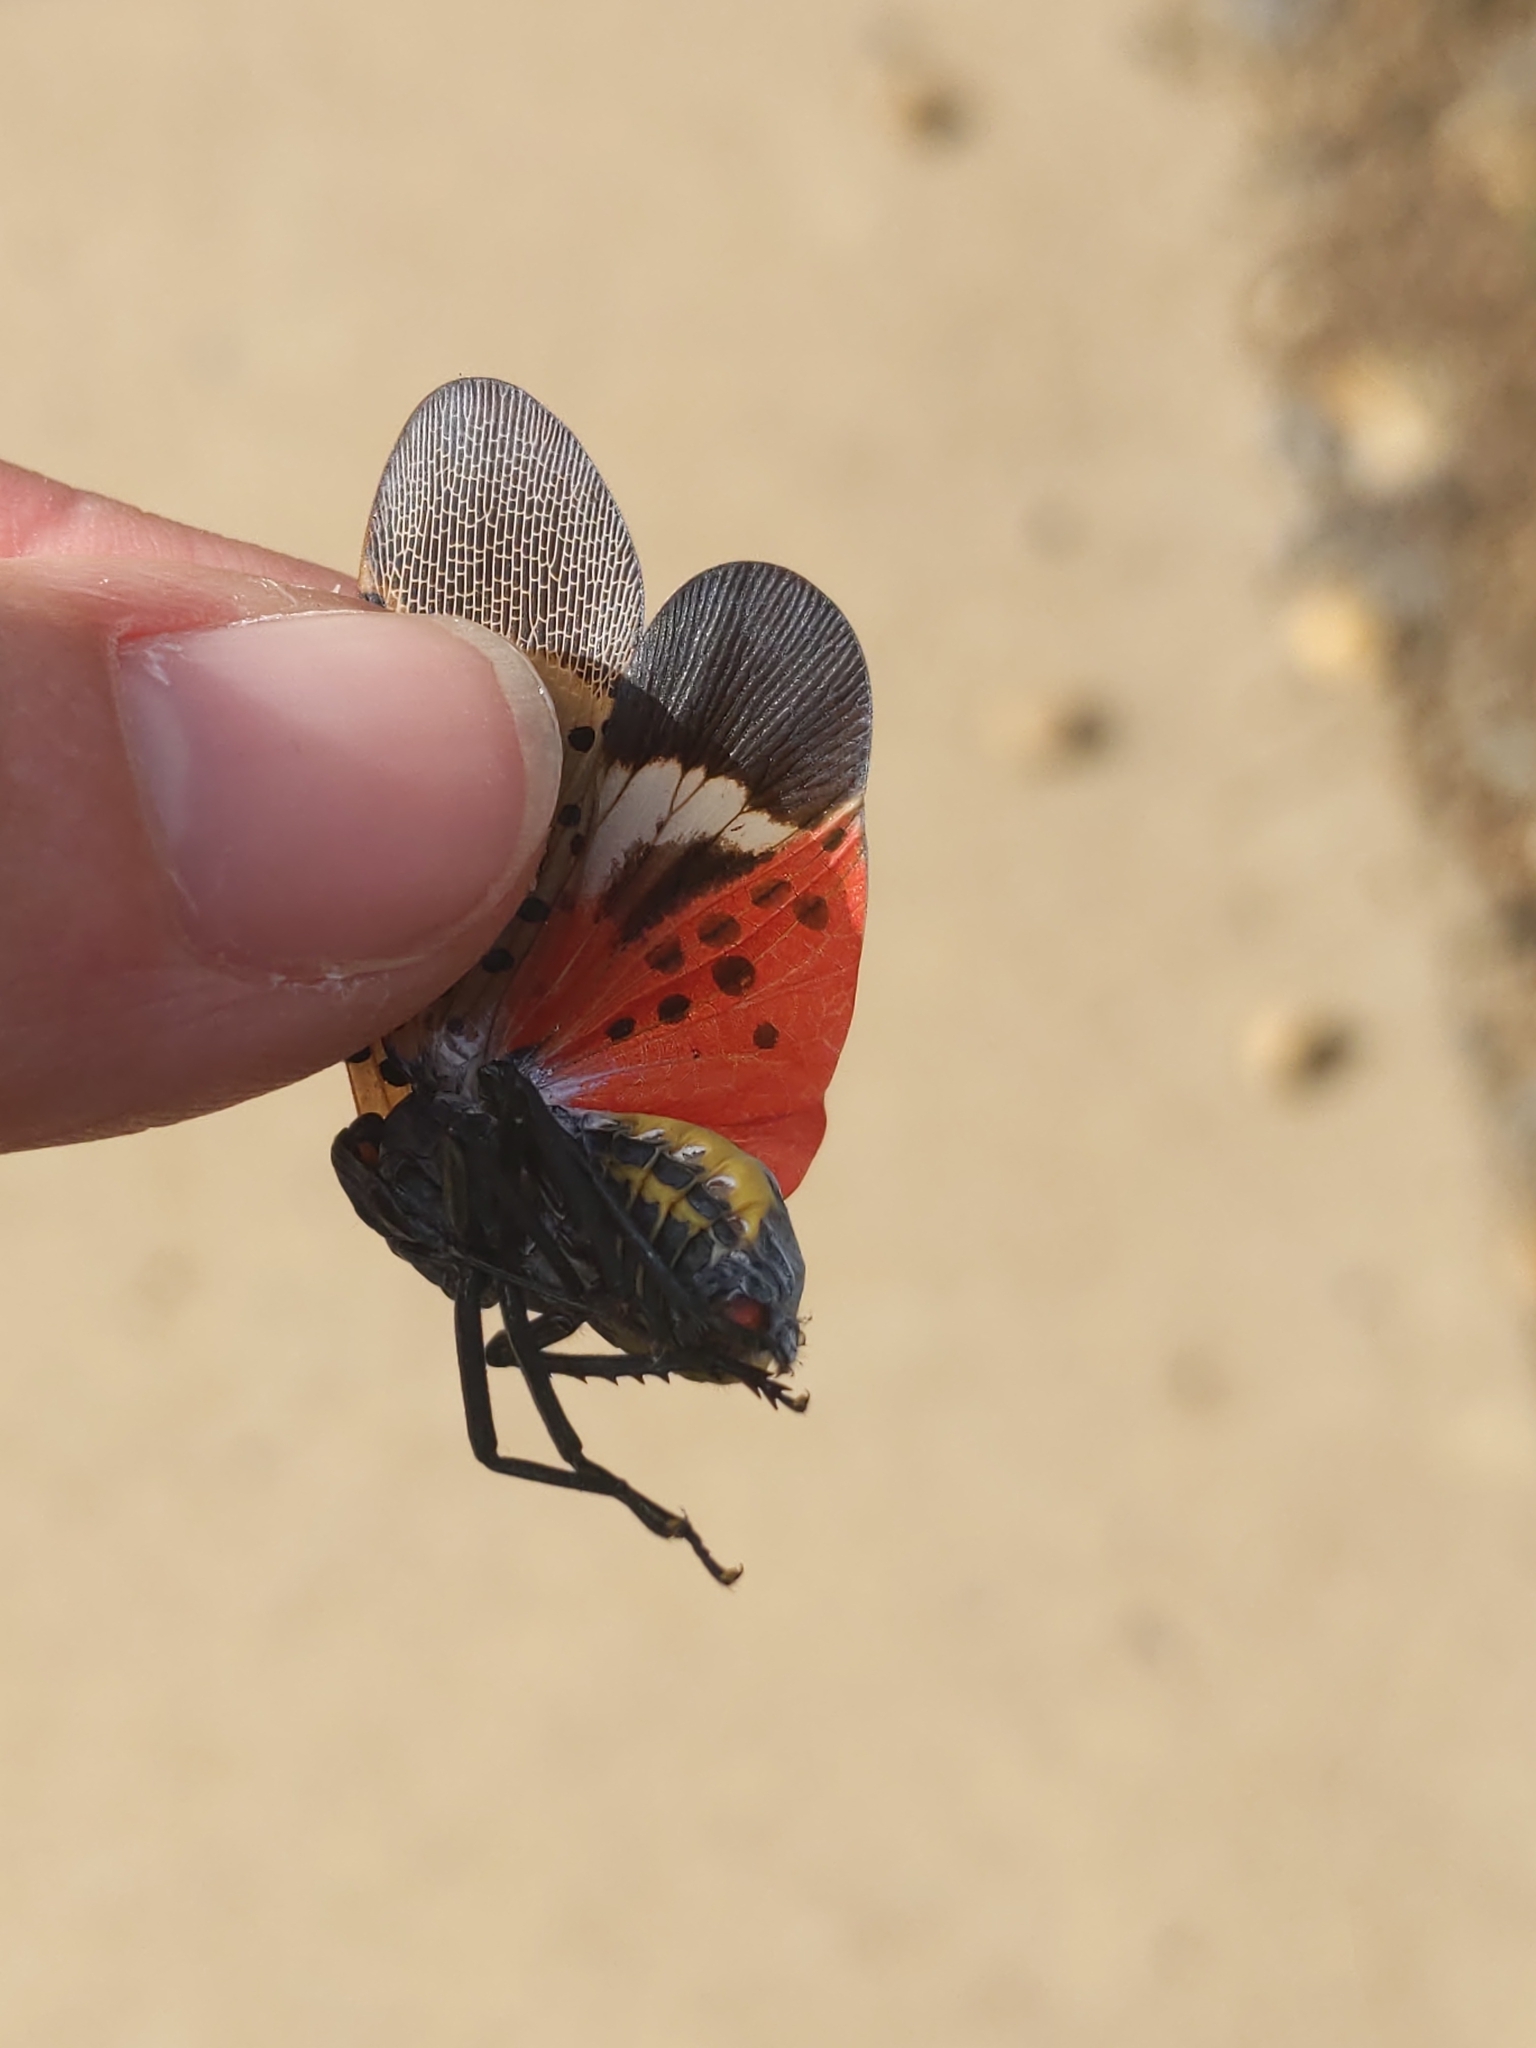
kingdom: Animalia
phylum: Arthropoda
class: Insecta
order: Hemiptera
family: Fulgoridae
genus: Lycorma
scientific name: Lycorma delicatula
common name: Spotted lanternfly
